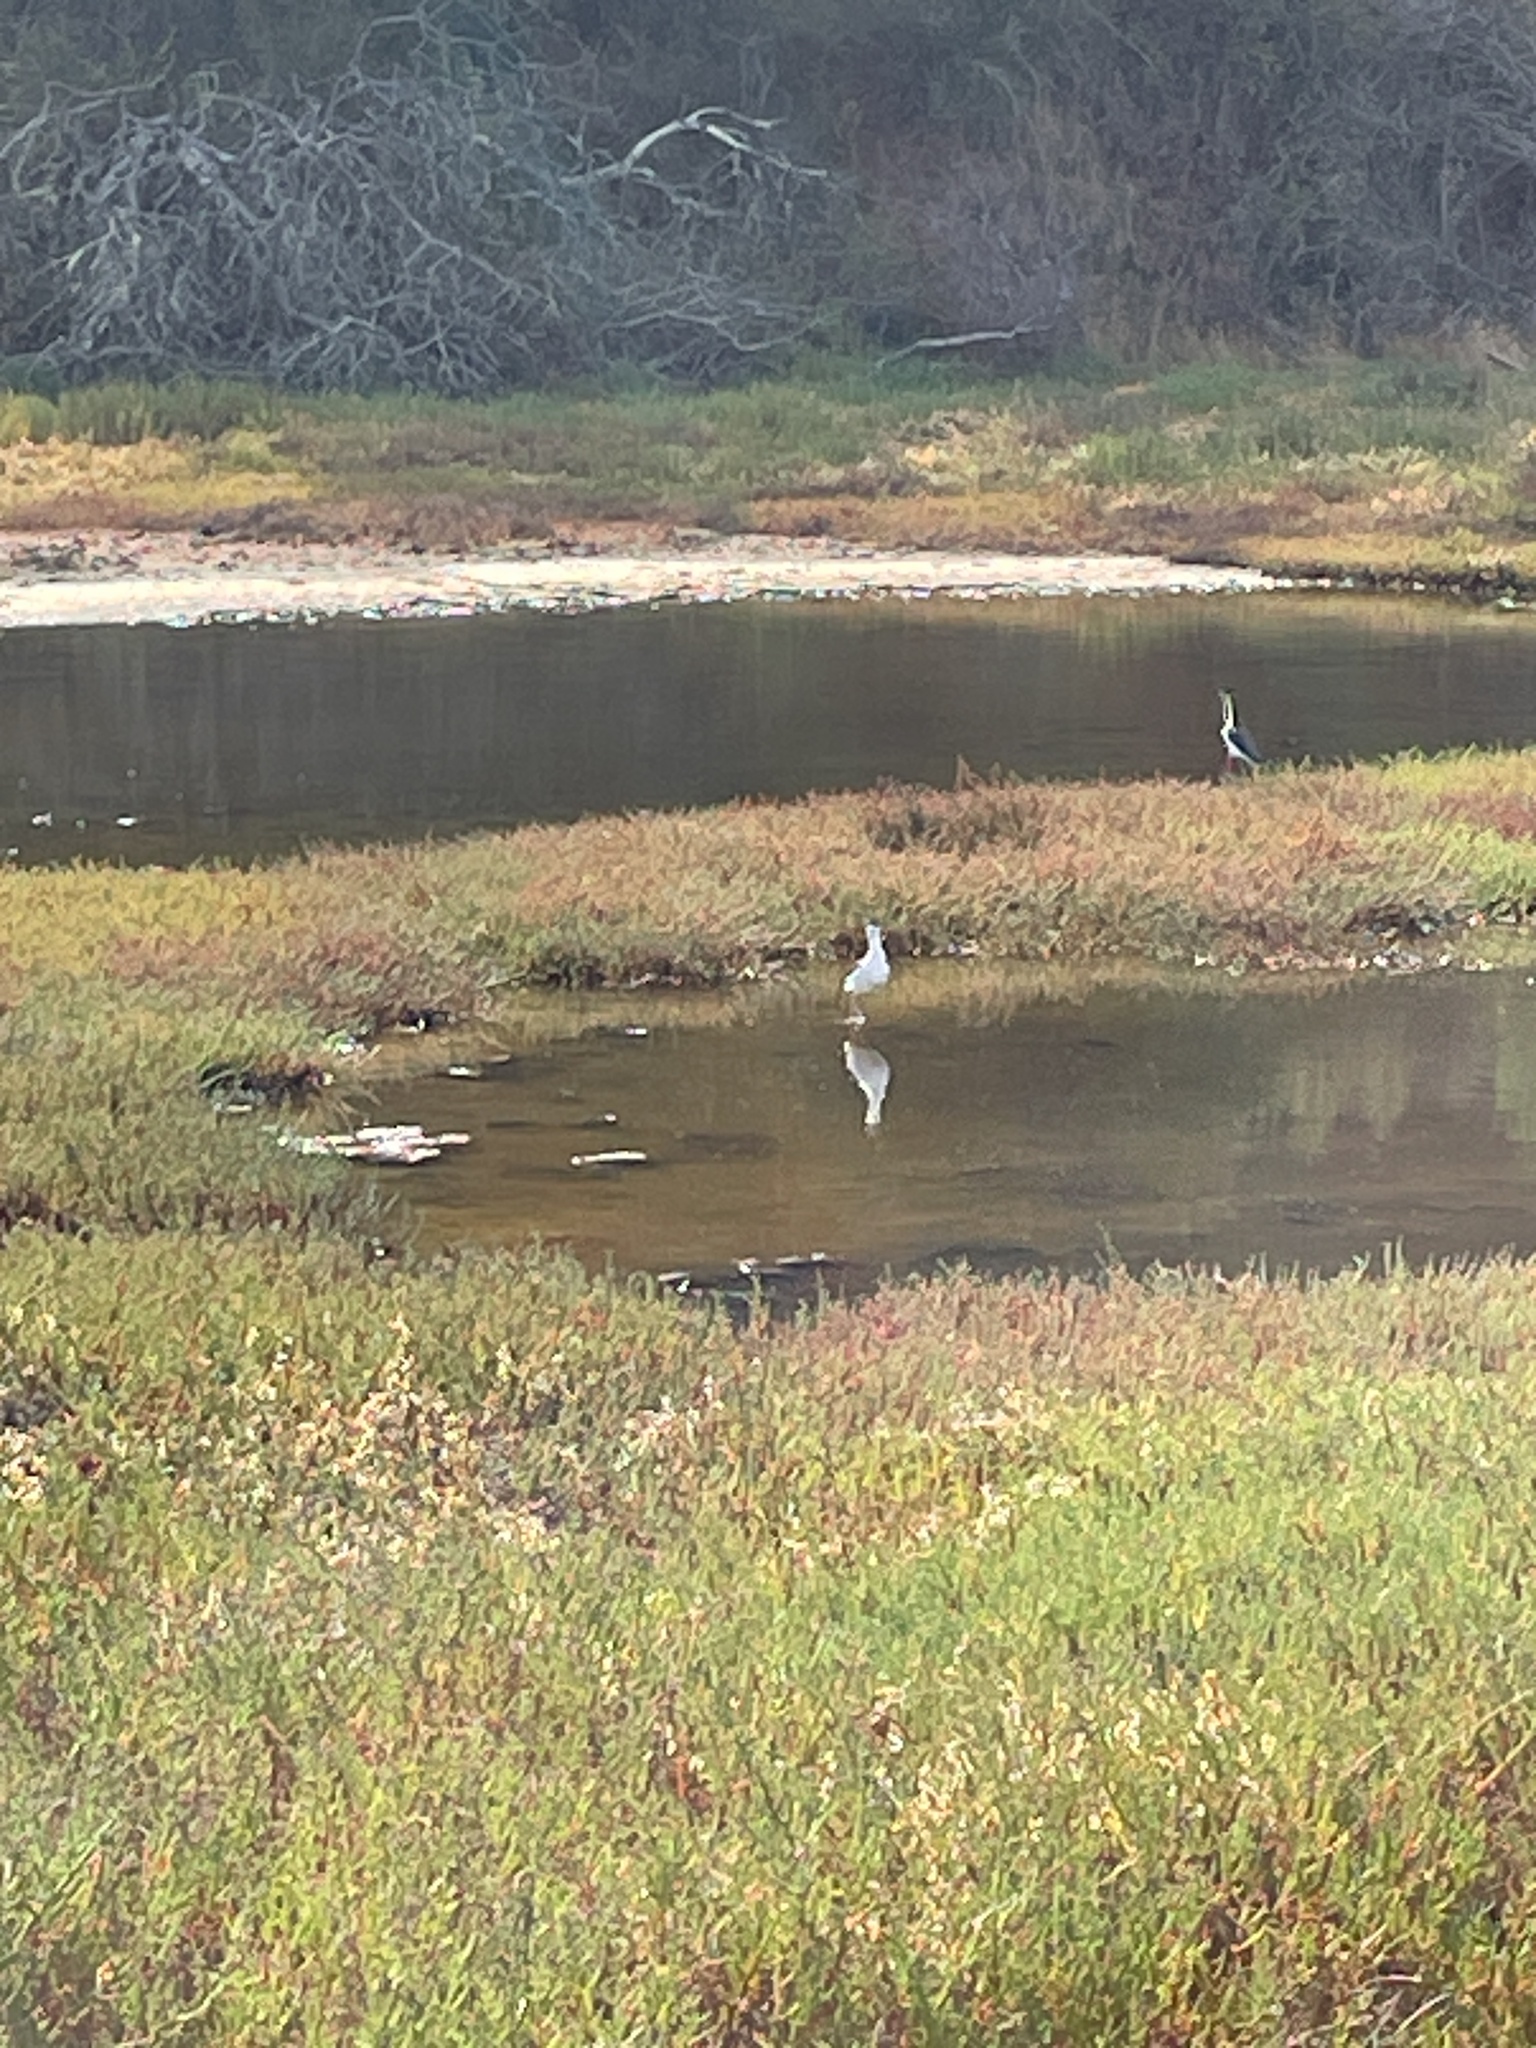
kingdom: Animalia
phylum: Chordata
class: Aves
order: Charadriiformes
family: Recurvirostridae
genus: Himantopus
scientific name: Himantopus mexicanus
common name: Black-necked stilt
